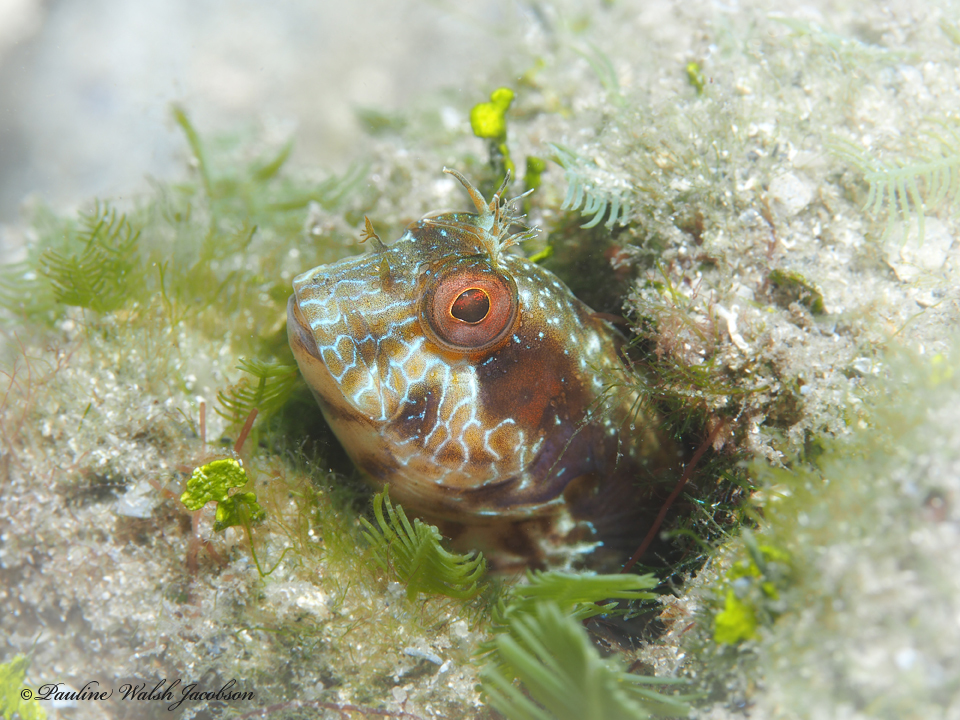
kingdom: Animalia
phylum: Chordata
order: Perciformes
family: Blenniidae
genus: Parablennius
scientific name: Parablennius marmoreus
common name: Seaweed blenny
